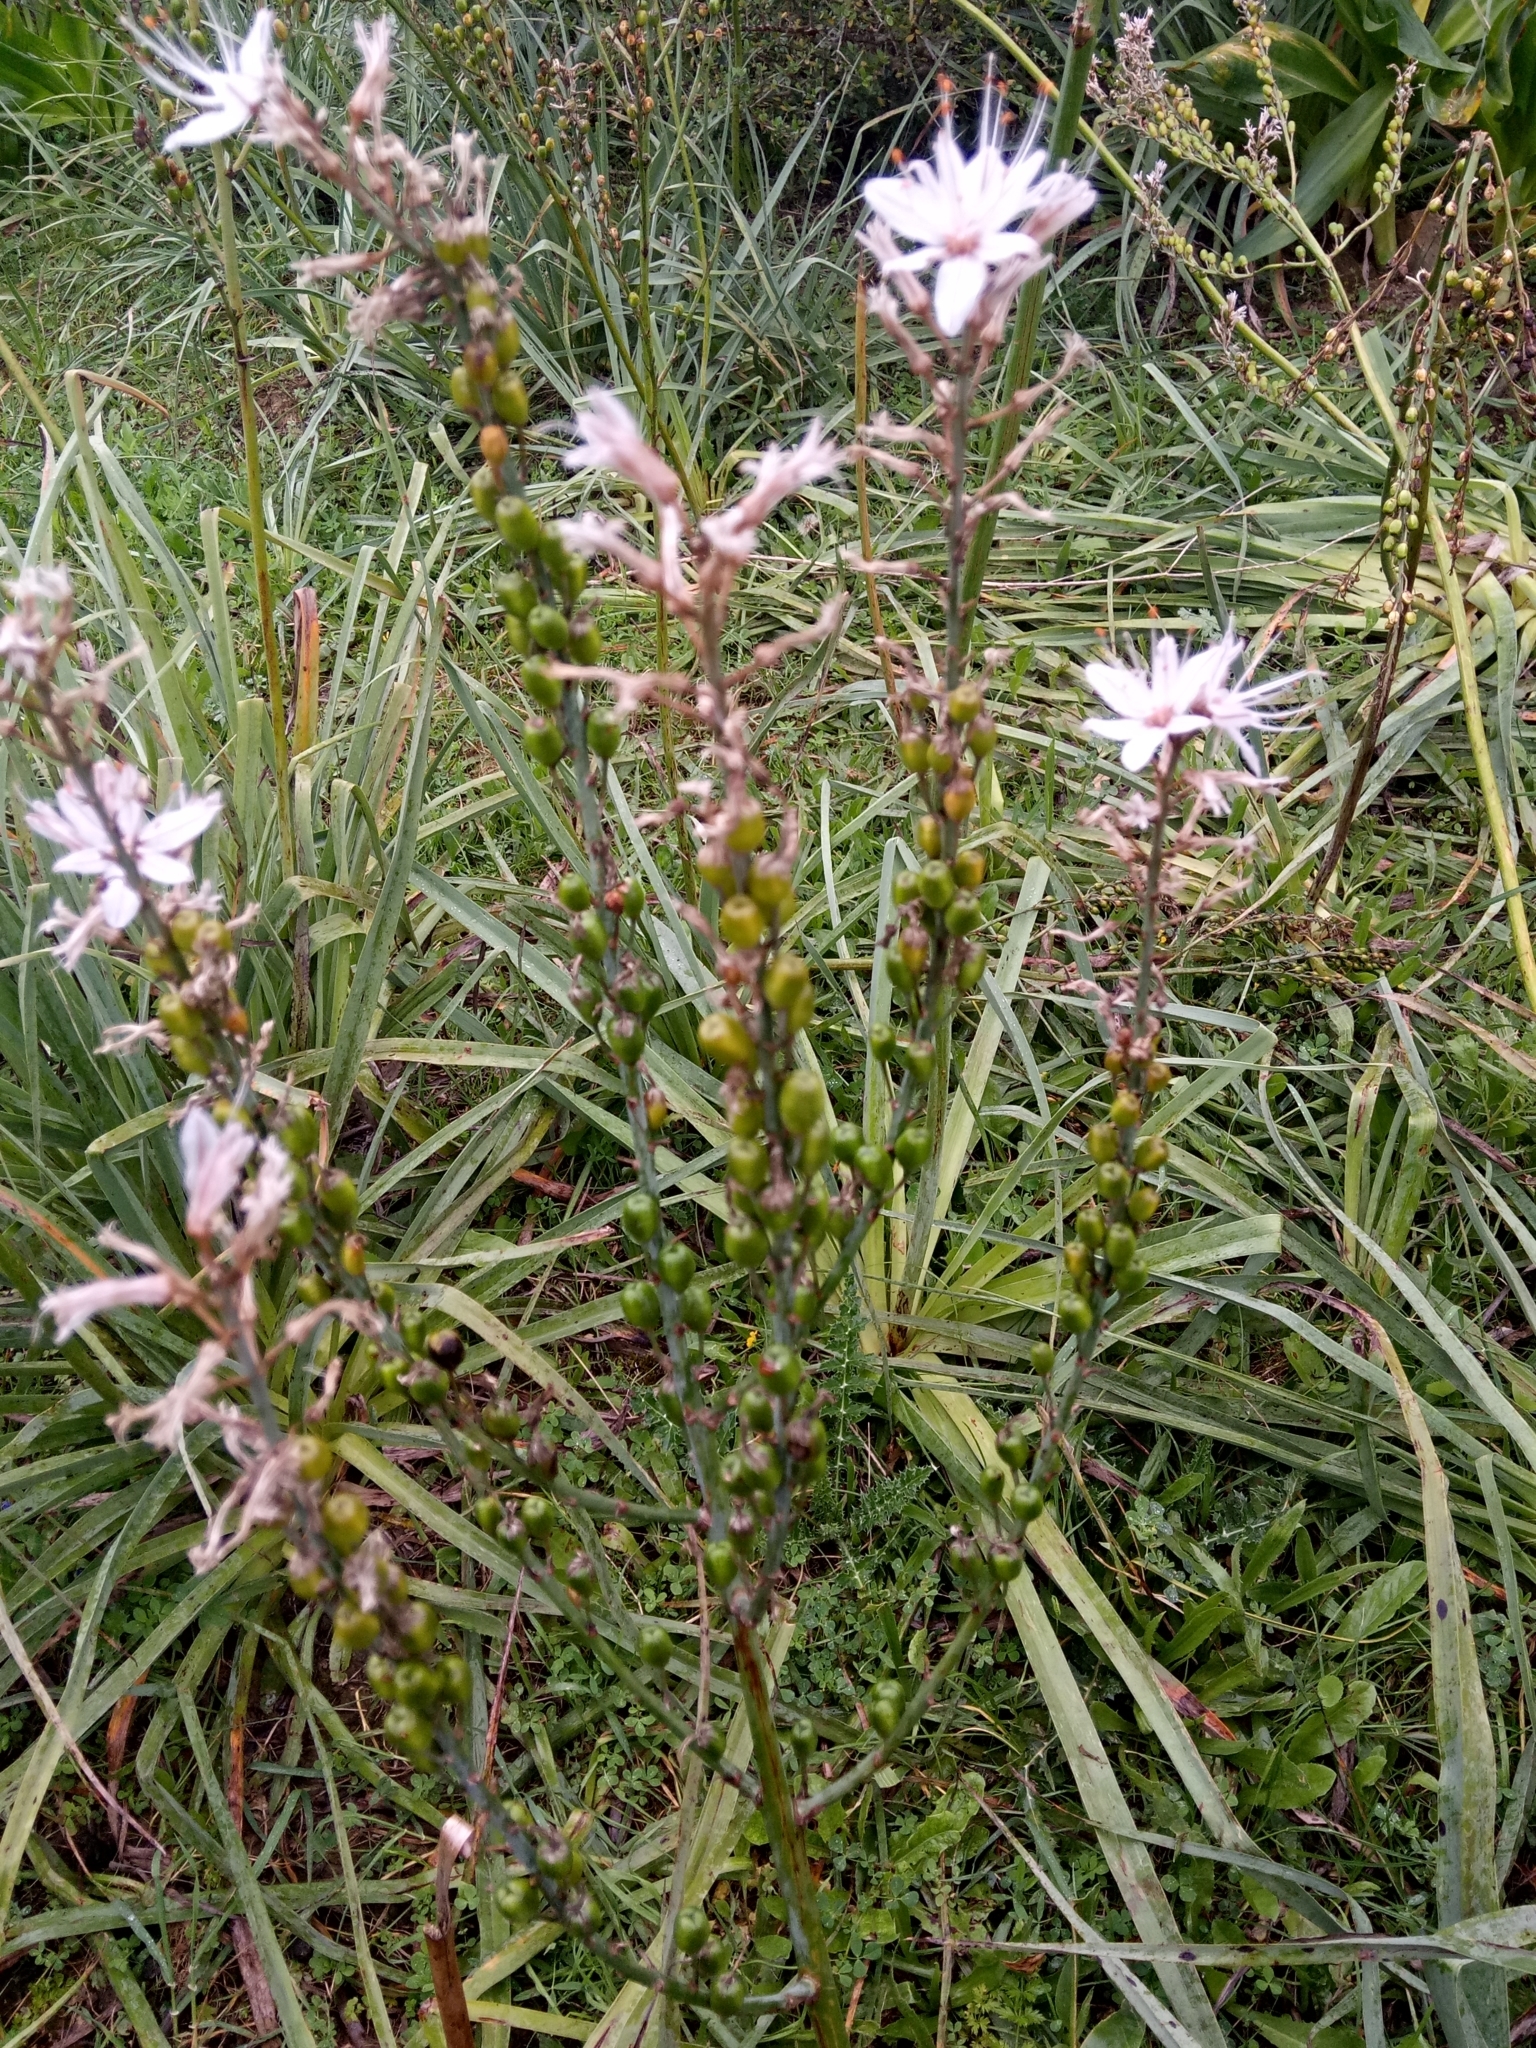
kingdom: Plantae
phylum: Tracheophyta
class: Liliopsida
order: Asparagales
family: Asphodelaceae
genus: Asphodelus
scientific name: Asphodelus ramosus
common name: Silverrod
